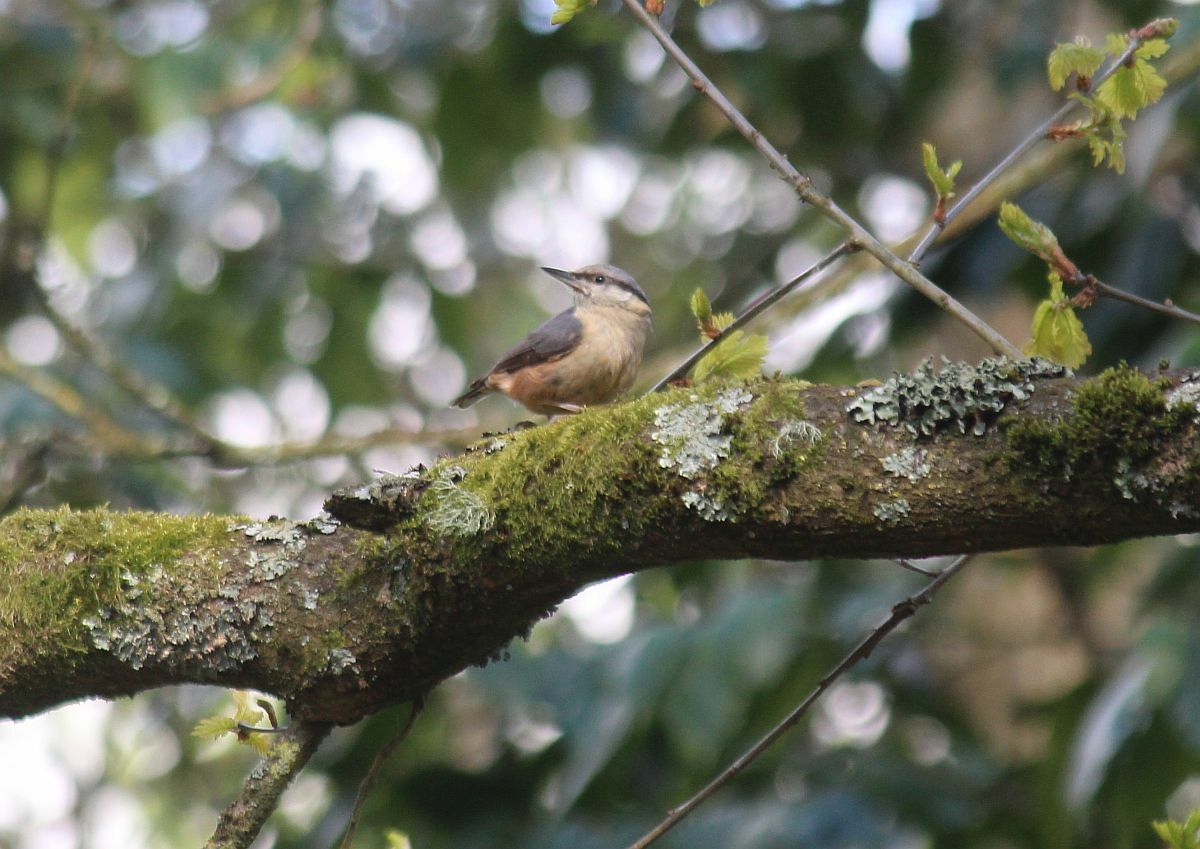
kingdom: Animalia
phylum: Chordata
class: Aves
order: Passeriformes
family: Sittidae
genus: Sitta
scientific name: Sitta europaea
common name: Eurasian nuthatch
